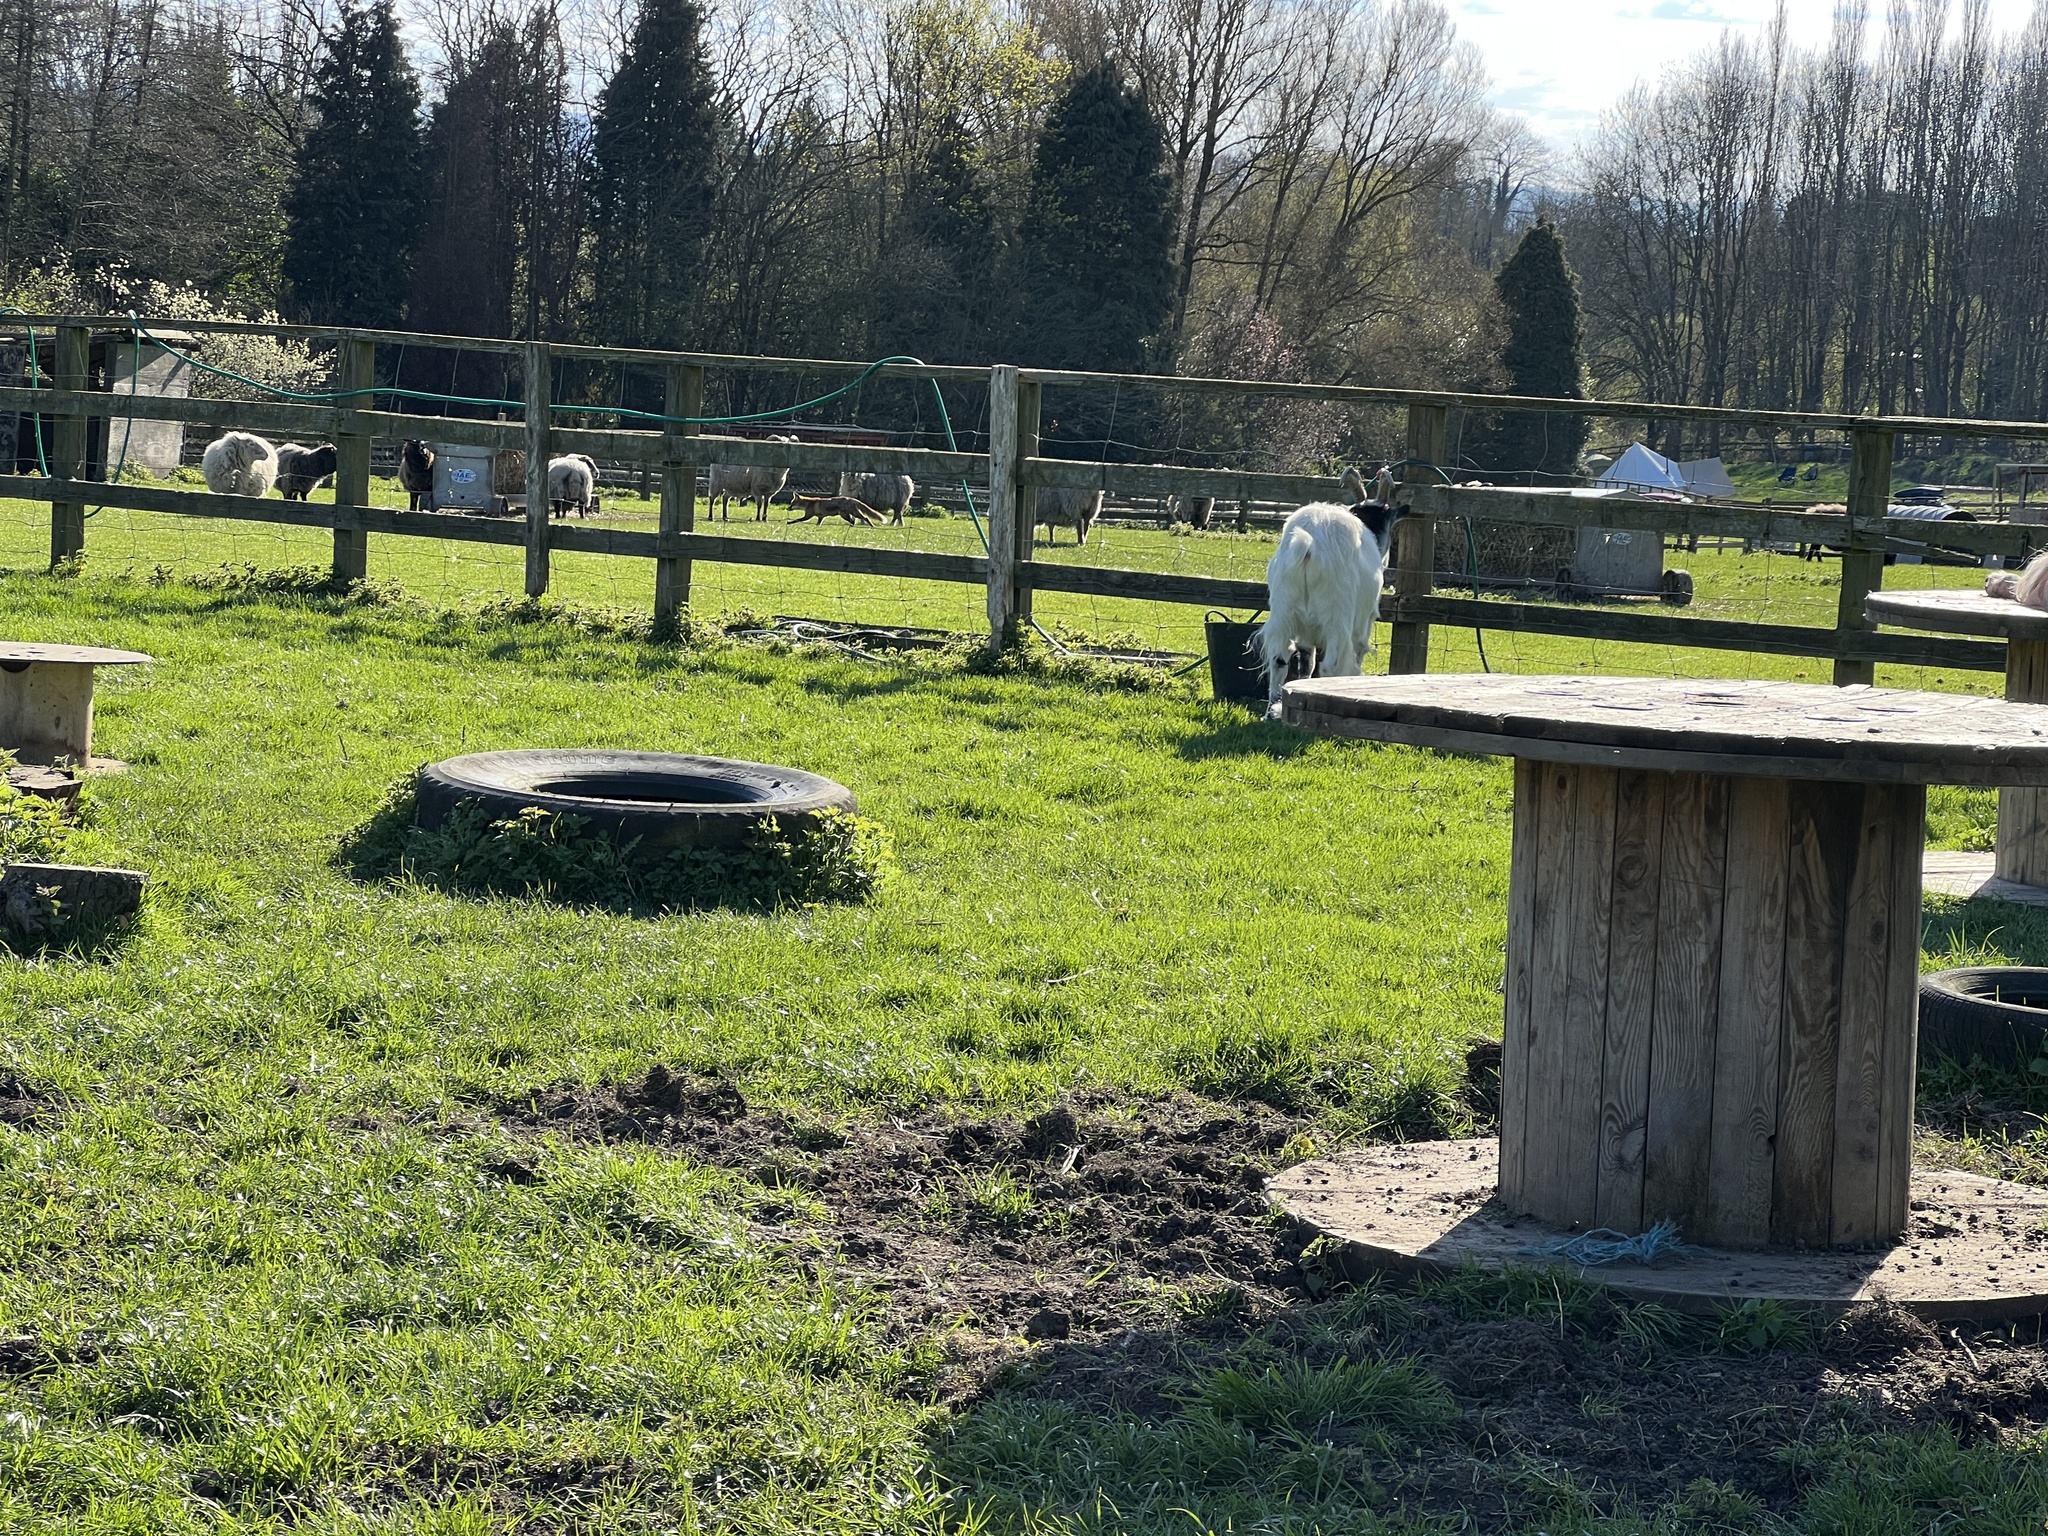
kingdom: Animalia
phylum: Chordata
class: Mammalia
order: Carnivora
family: Canidae
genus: Vulpes
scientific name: Vulpes vulpes
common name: Red fox
